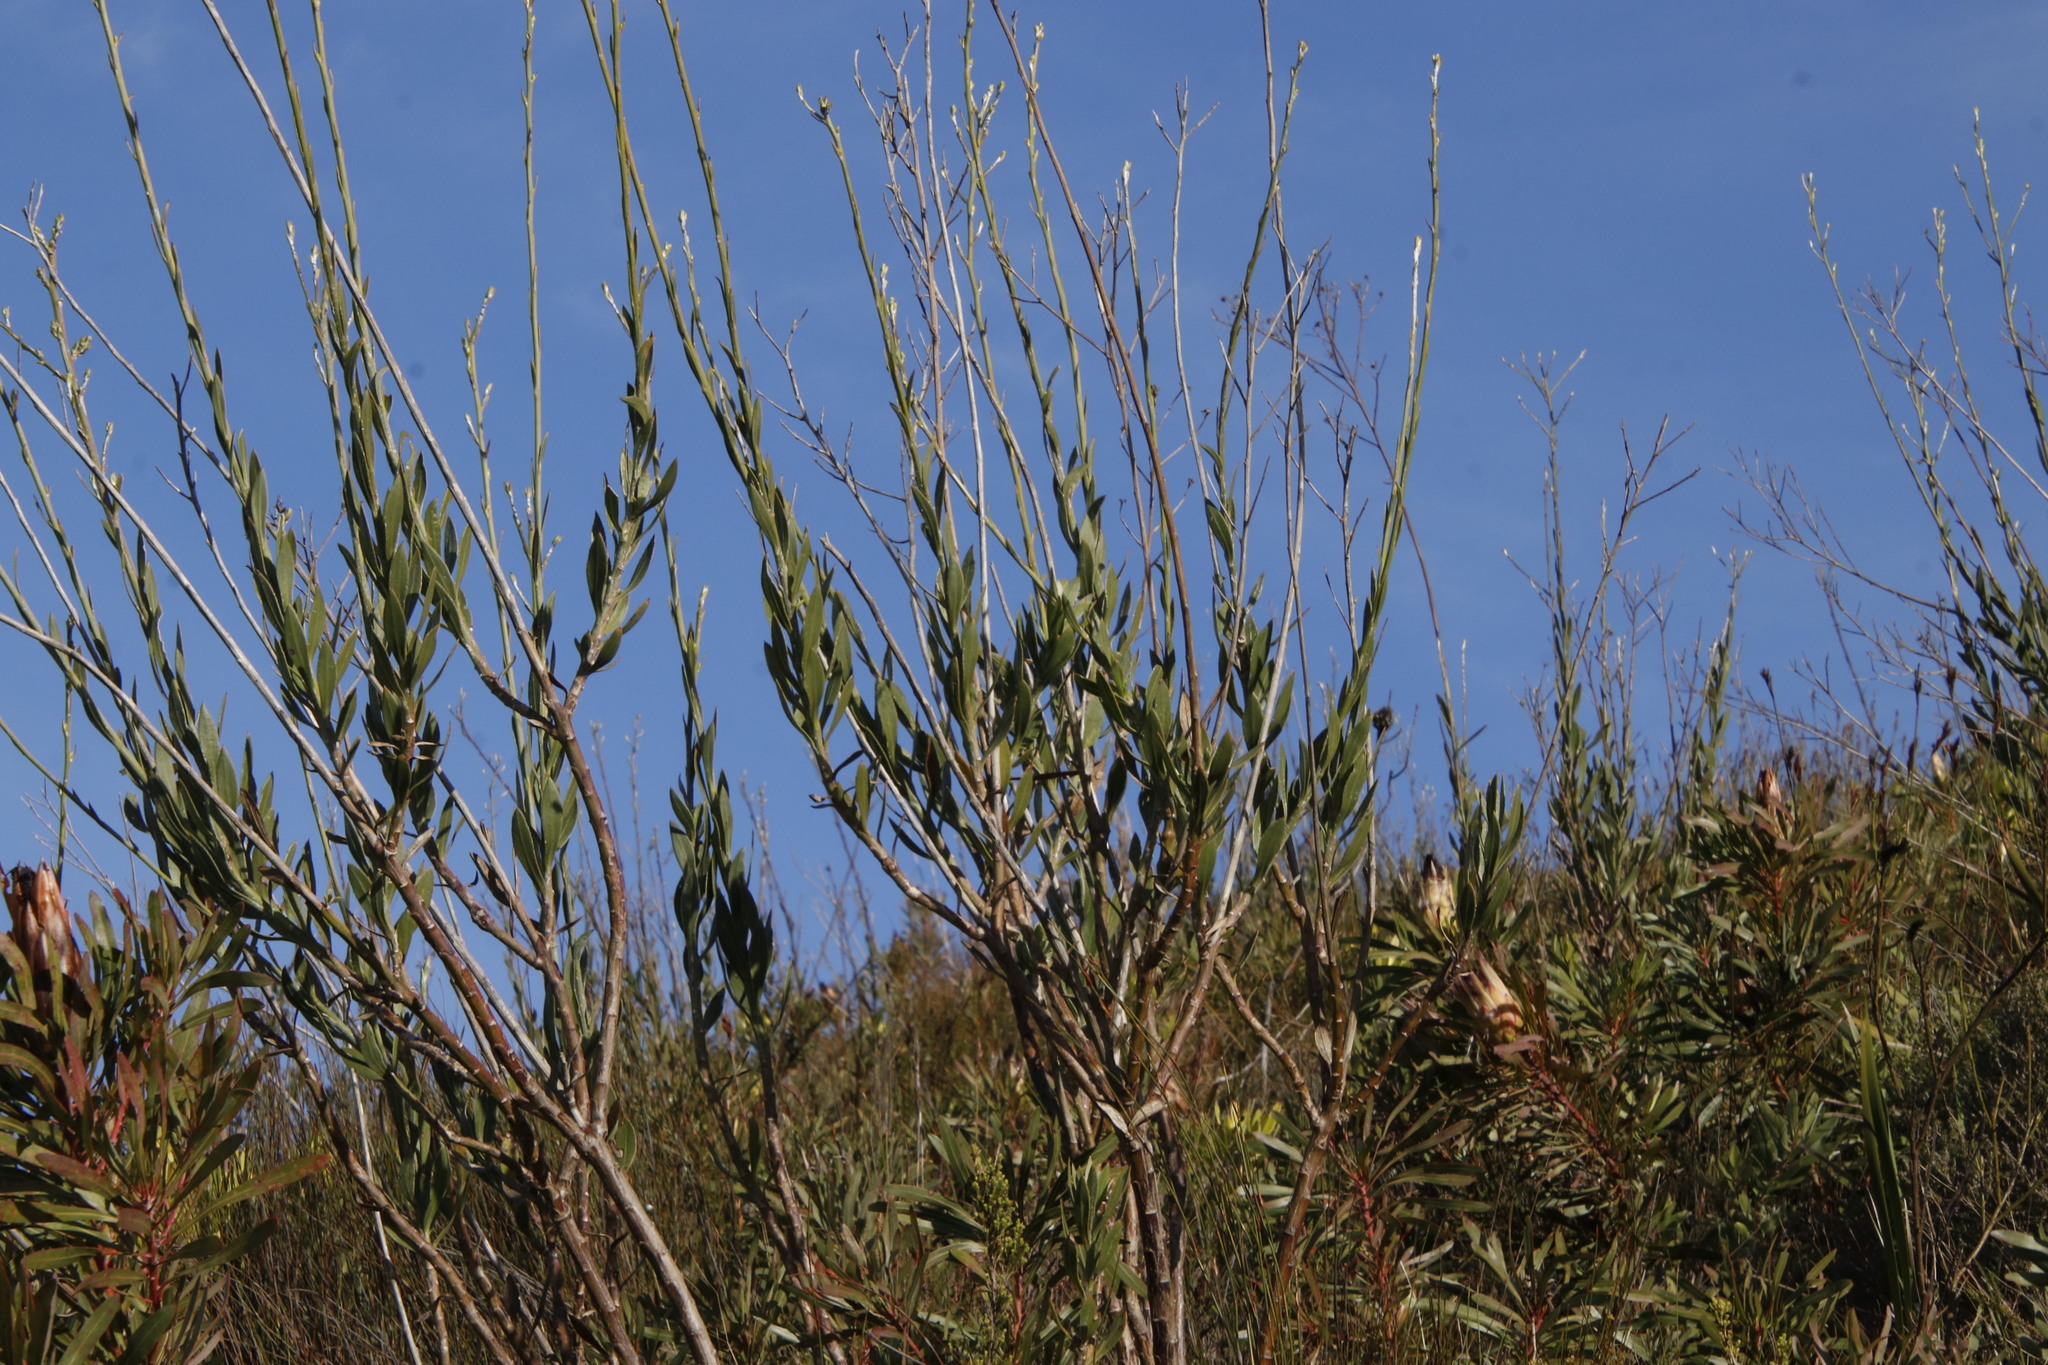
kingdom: Plantae
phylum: Tracheophyta
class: Magnoliopsida
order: Asterales
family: Asteraceae
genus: Osteospermum
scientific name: Osteospermum junceum
